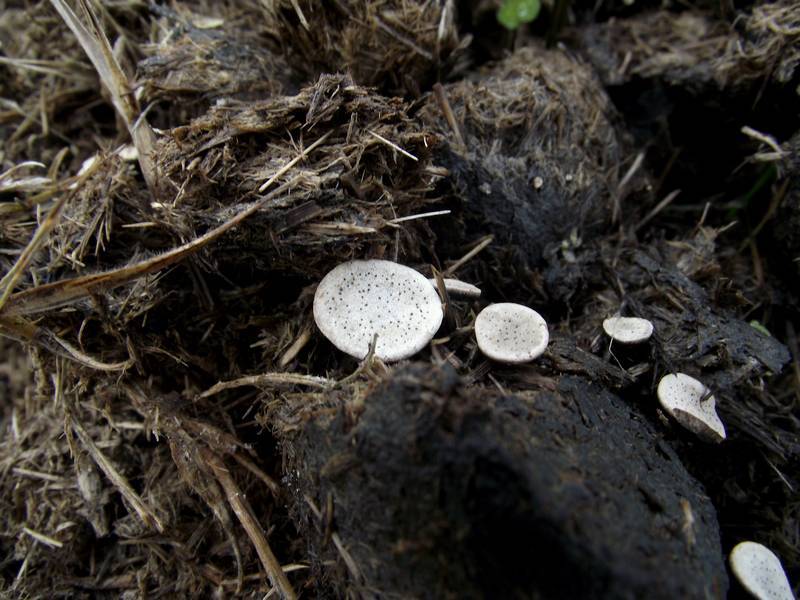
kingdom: Fungi
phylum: Ascomycota
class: Sordariomycetes
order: Xylariales
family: Xylariaceae
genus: Poronia
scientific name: Poronia punctata
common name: Nail fungus
